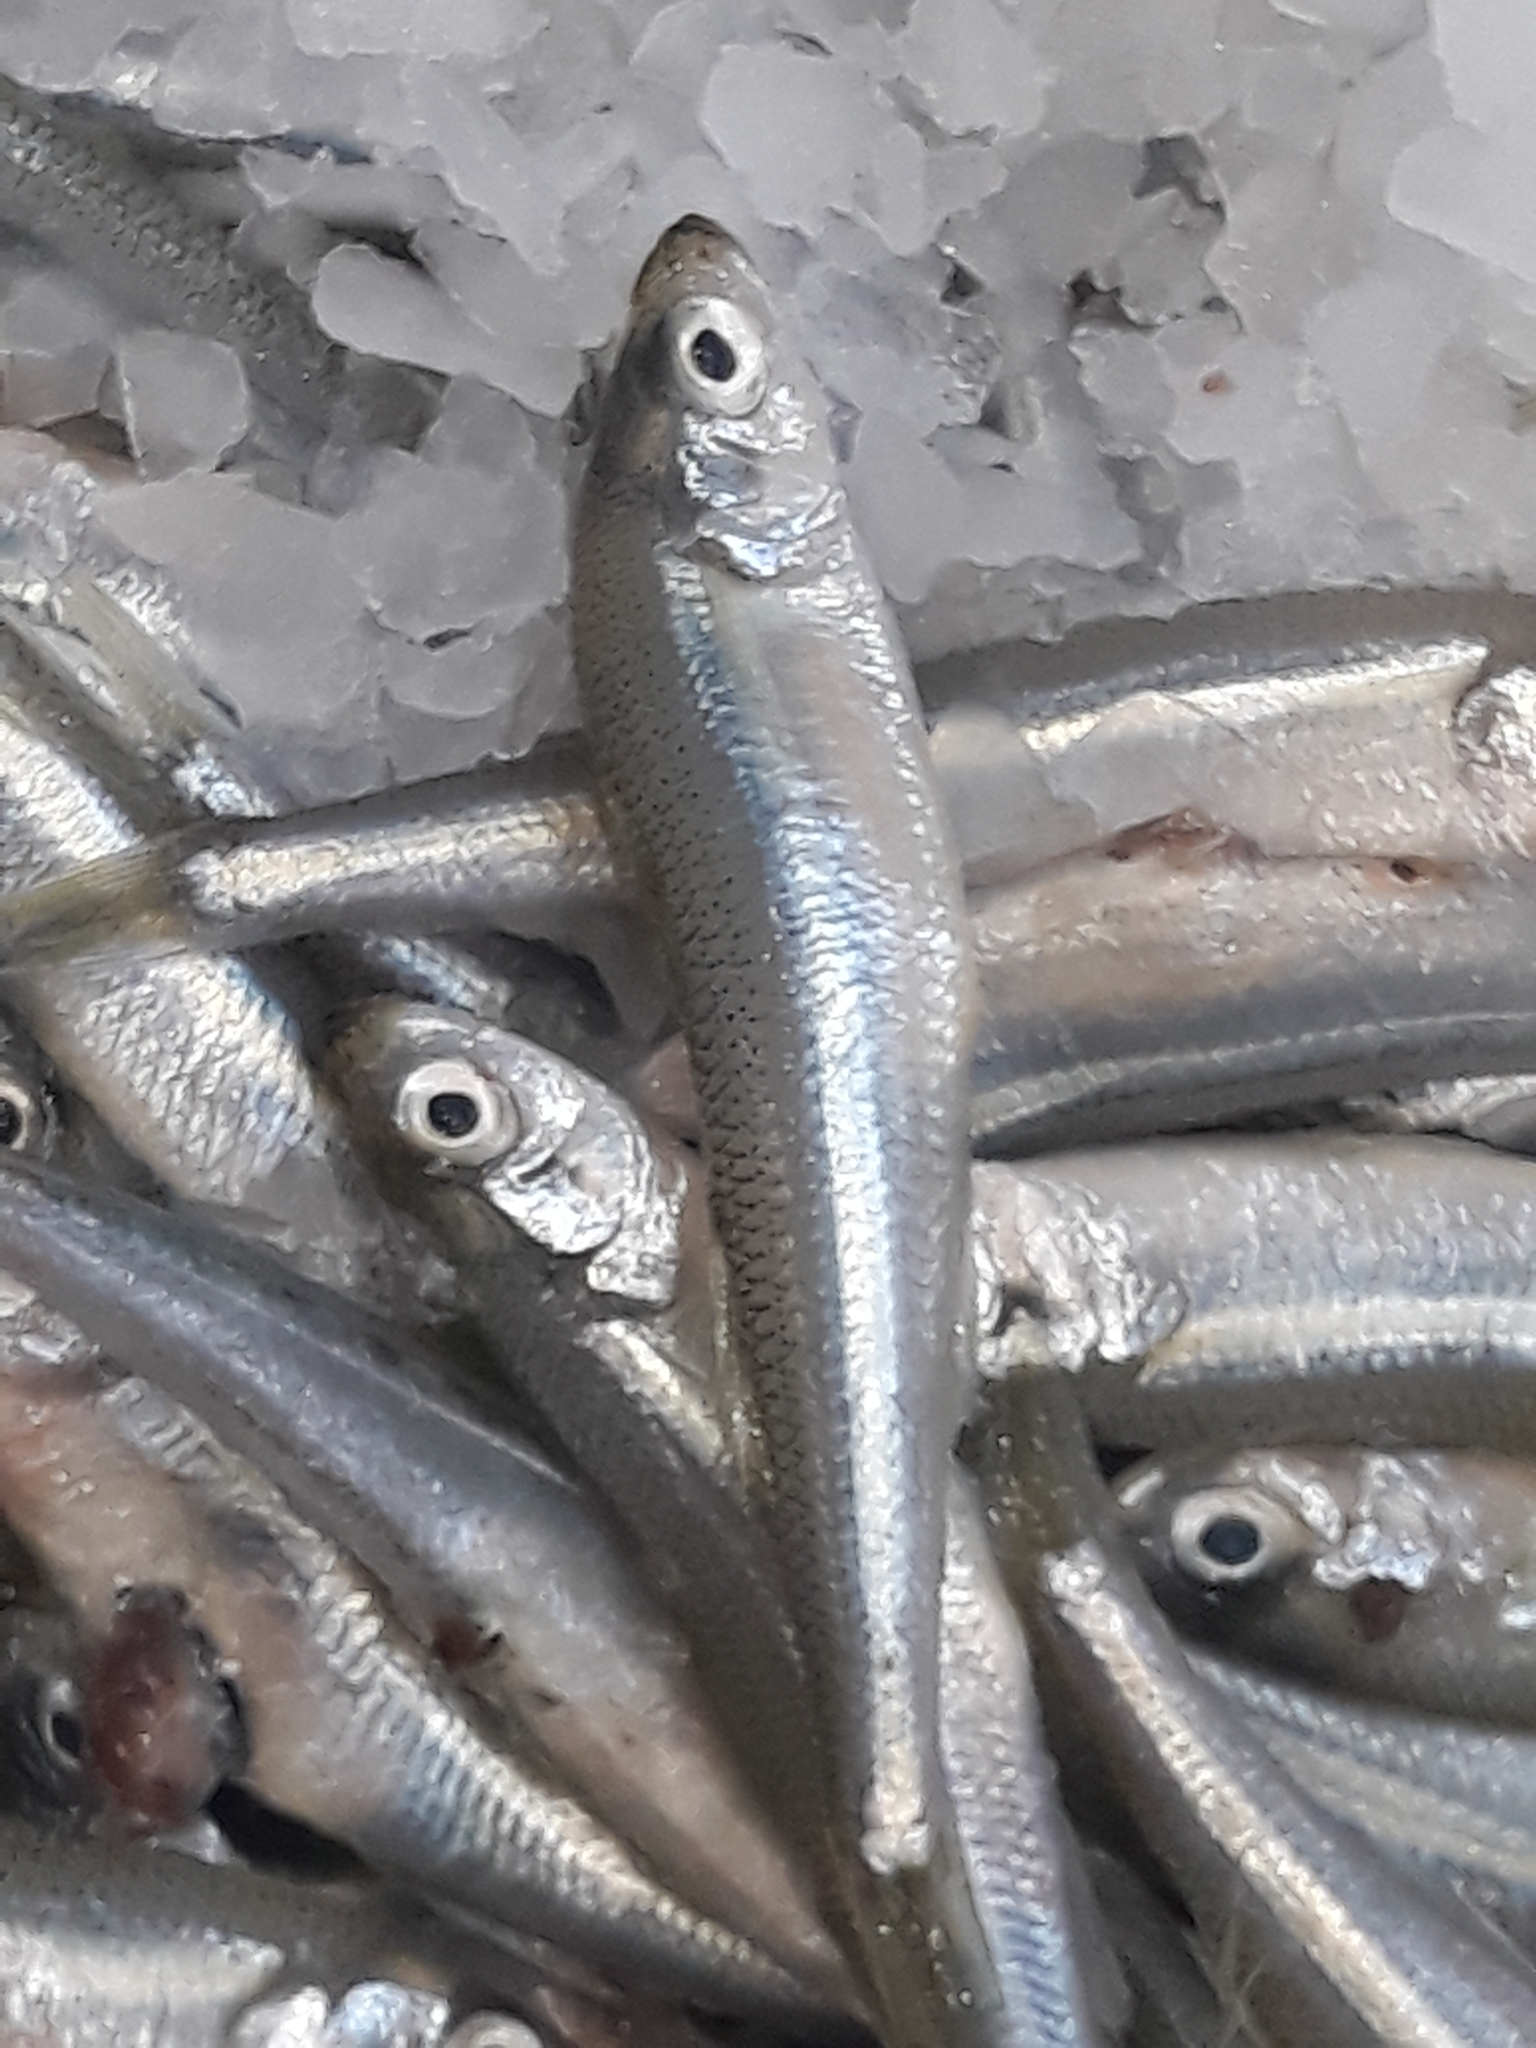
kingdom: Animalia
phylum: Chordata
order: Atheriniformes
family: Atherinidae
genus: Atherina
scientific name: Atherina presbyter
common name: Sand smelt
